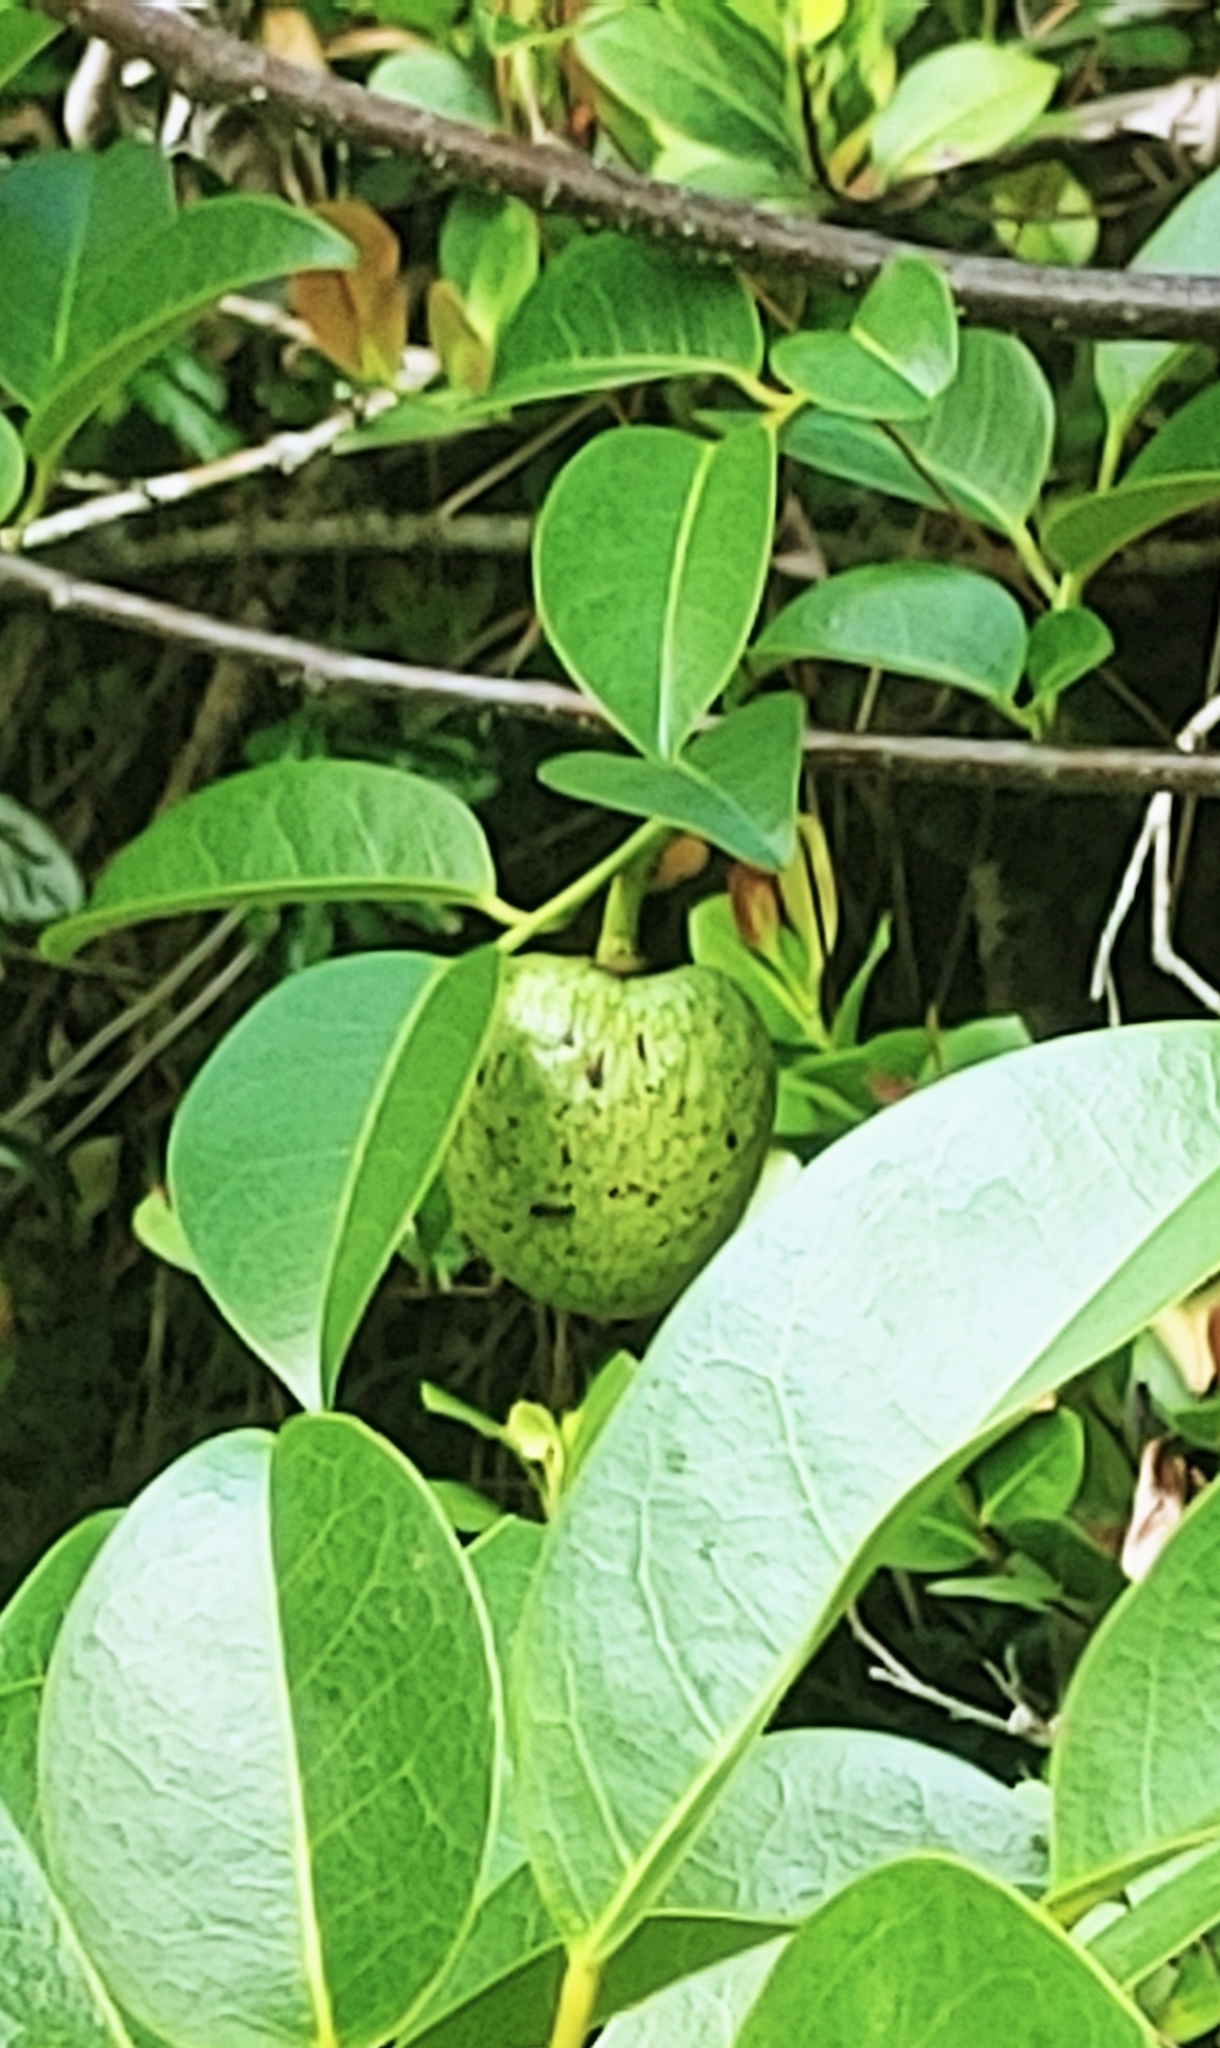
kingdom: Plantae
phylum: Tracheophyta
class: Magnoliopsida
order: Magnoliales
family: Annonaceae
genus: Annona
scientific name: Annona glabra
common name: Monkey apple
